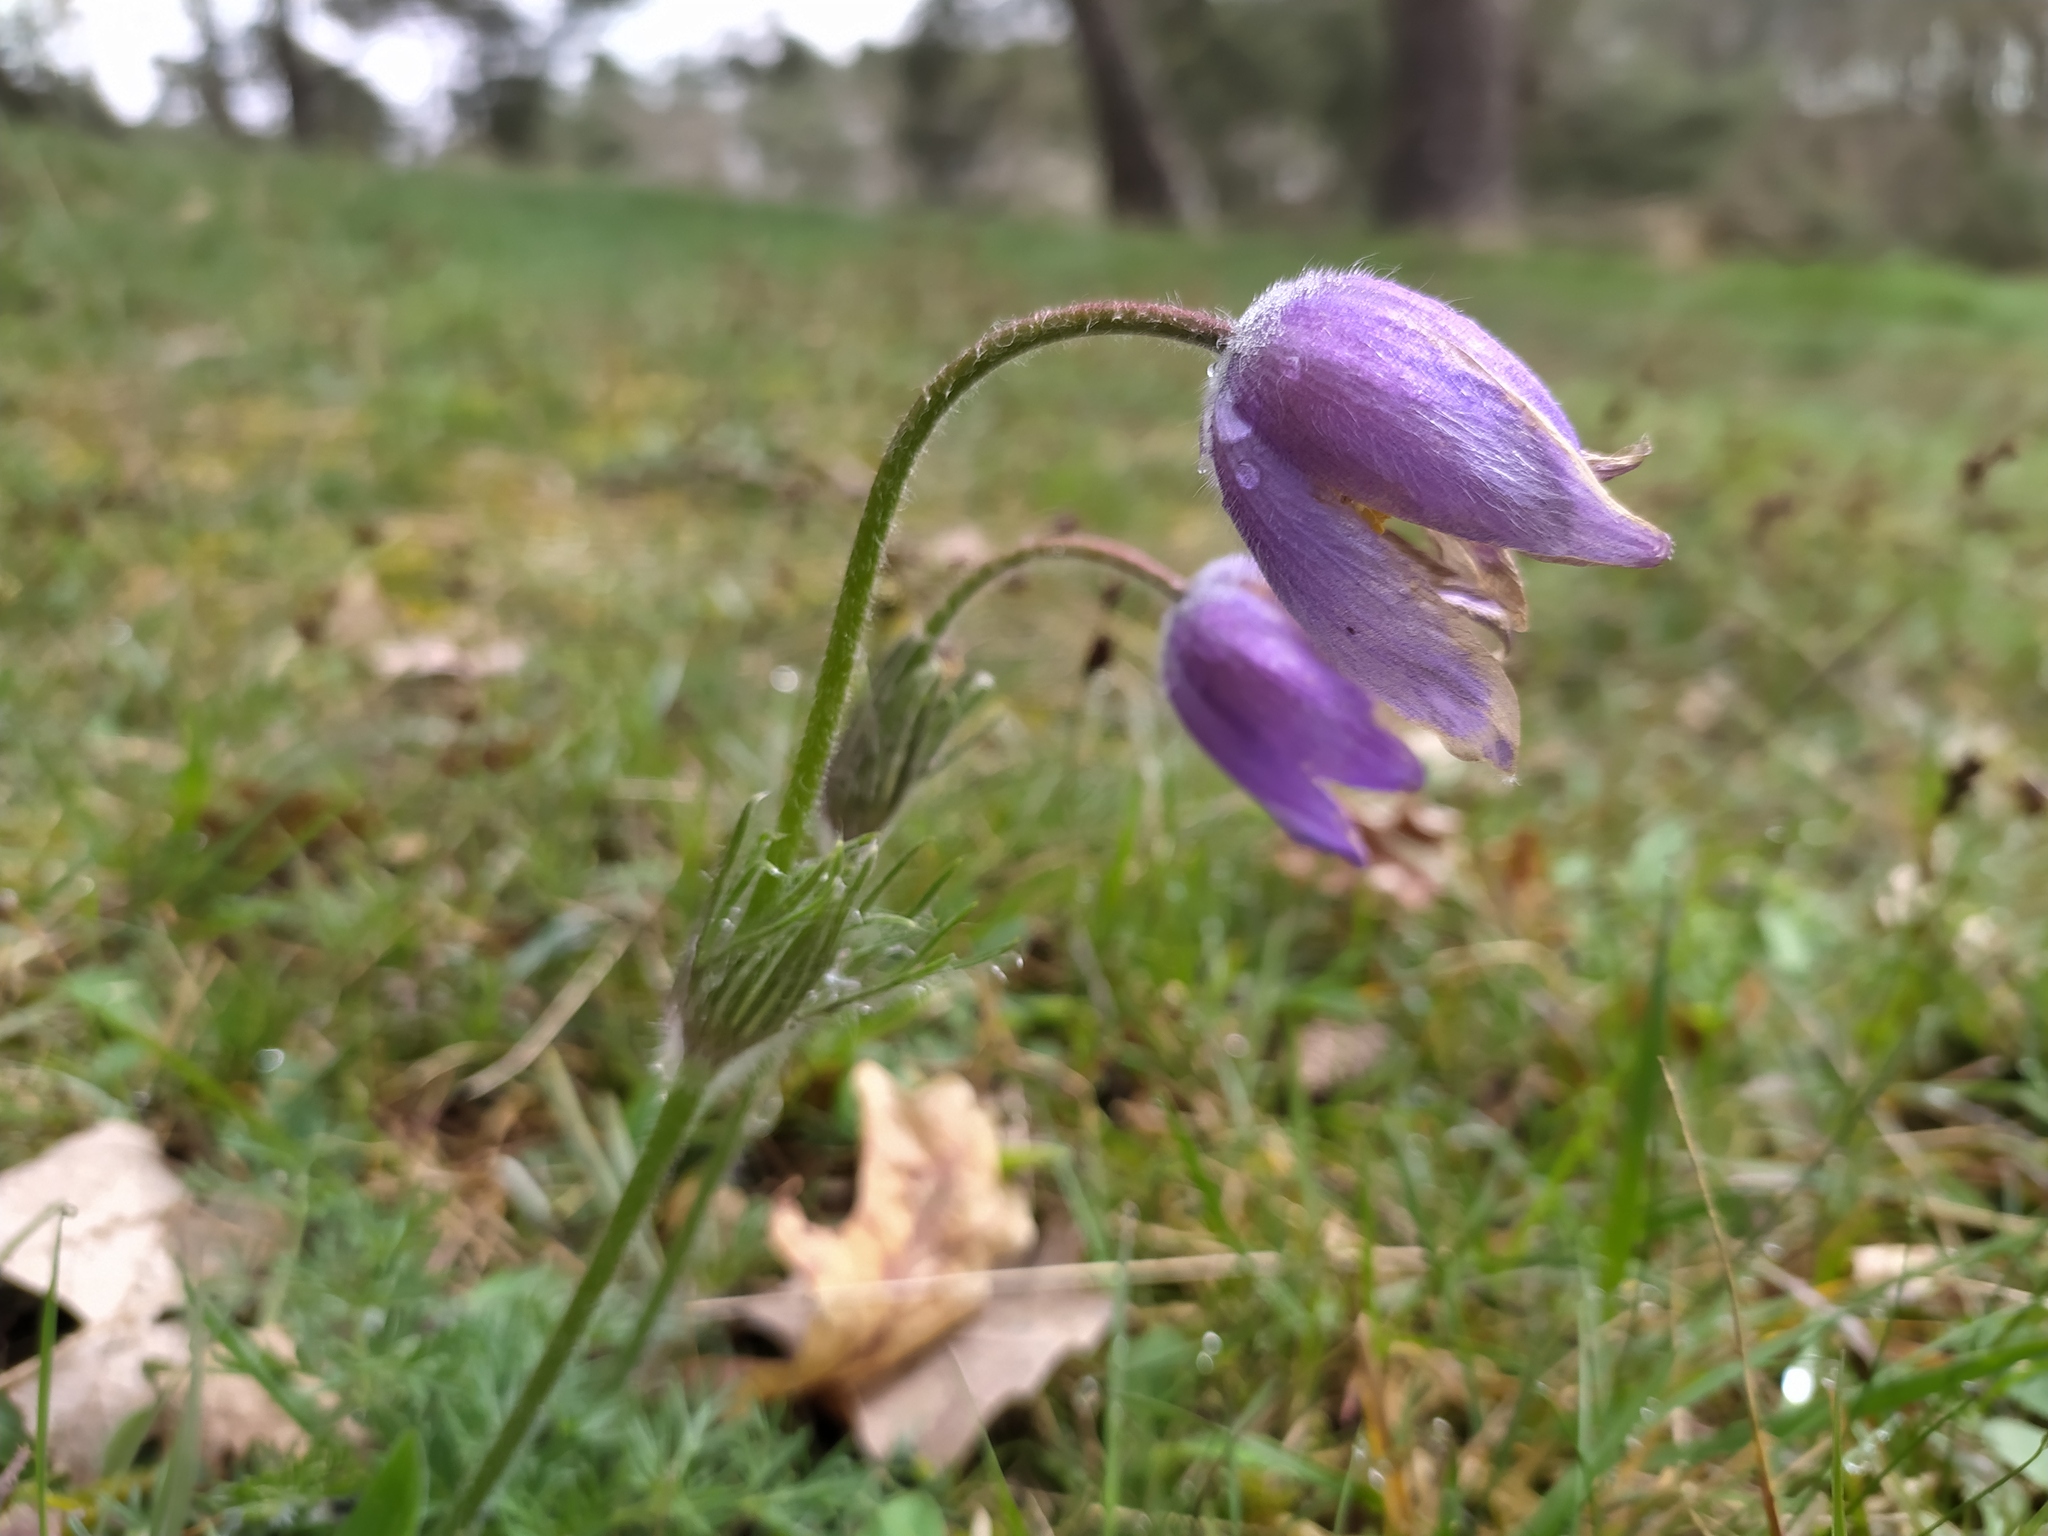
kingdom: Plantae
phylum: Tracheophyta
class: Magnoliopsida
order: Ranunculales
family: Ranunculaceae
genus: Pulsatilla
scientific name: Pulsatilla vulgaris
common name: Pasqueflower
